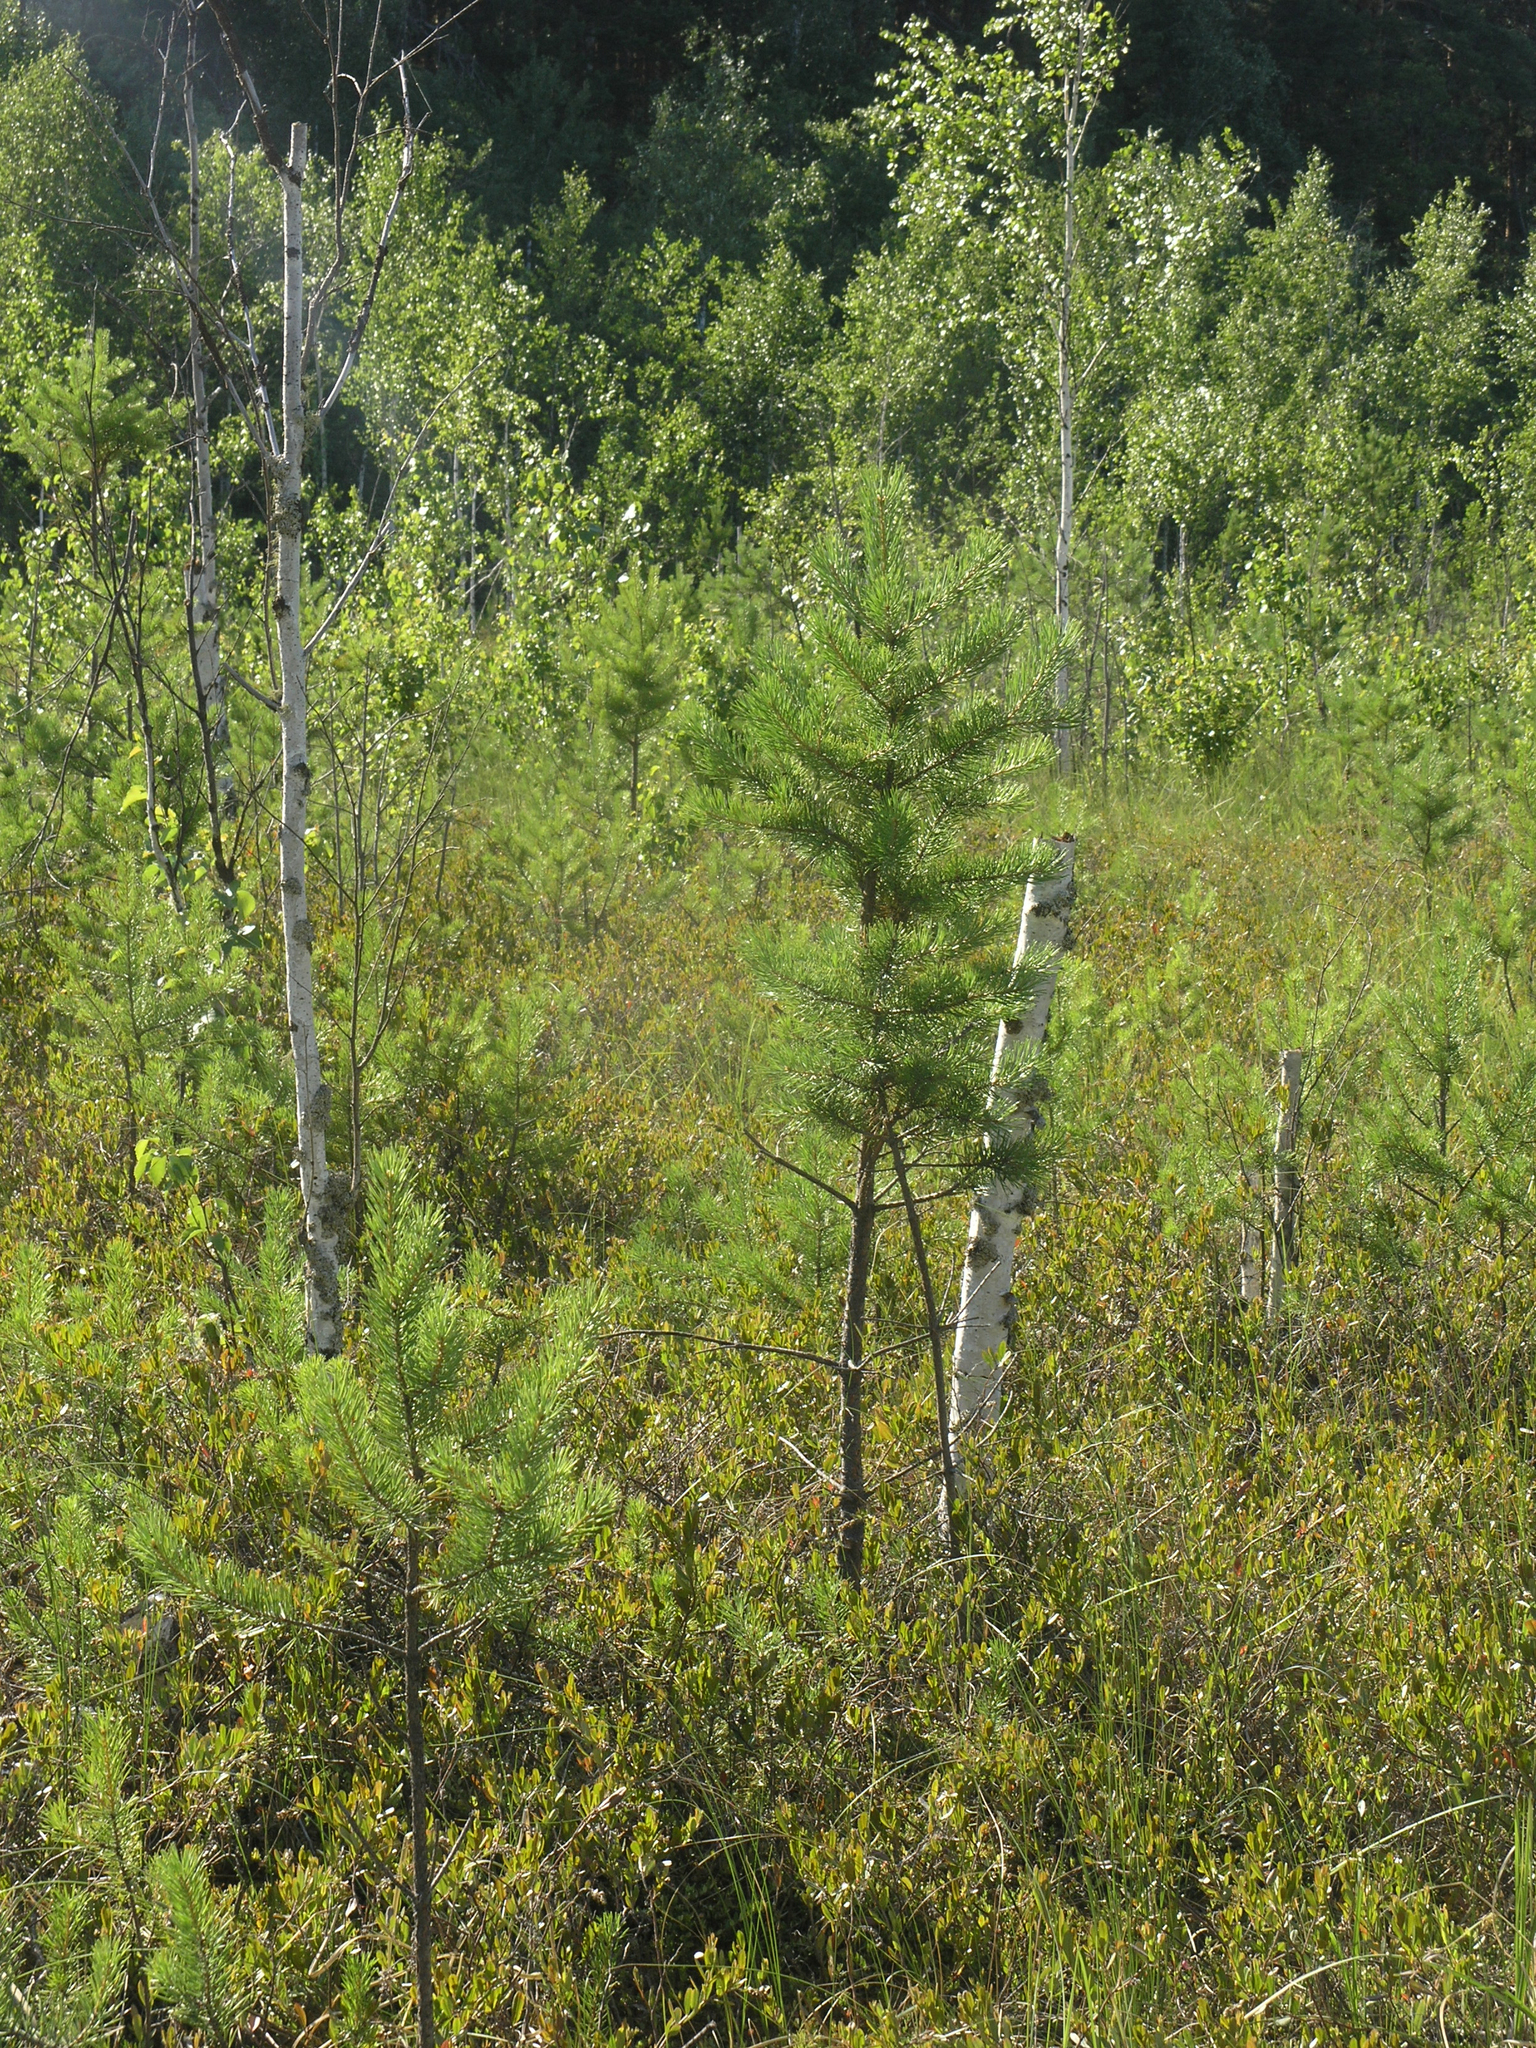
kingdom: Plantae
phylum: Tracheophyta
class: Pinopsida
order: Pinales
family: Pinaceae
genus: Pinus
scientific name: Pinus sylvestris
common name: Scots pine
